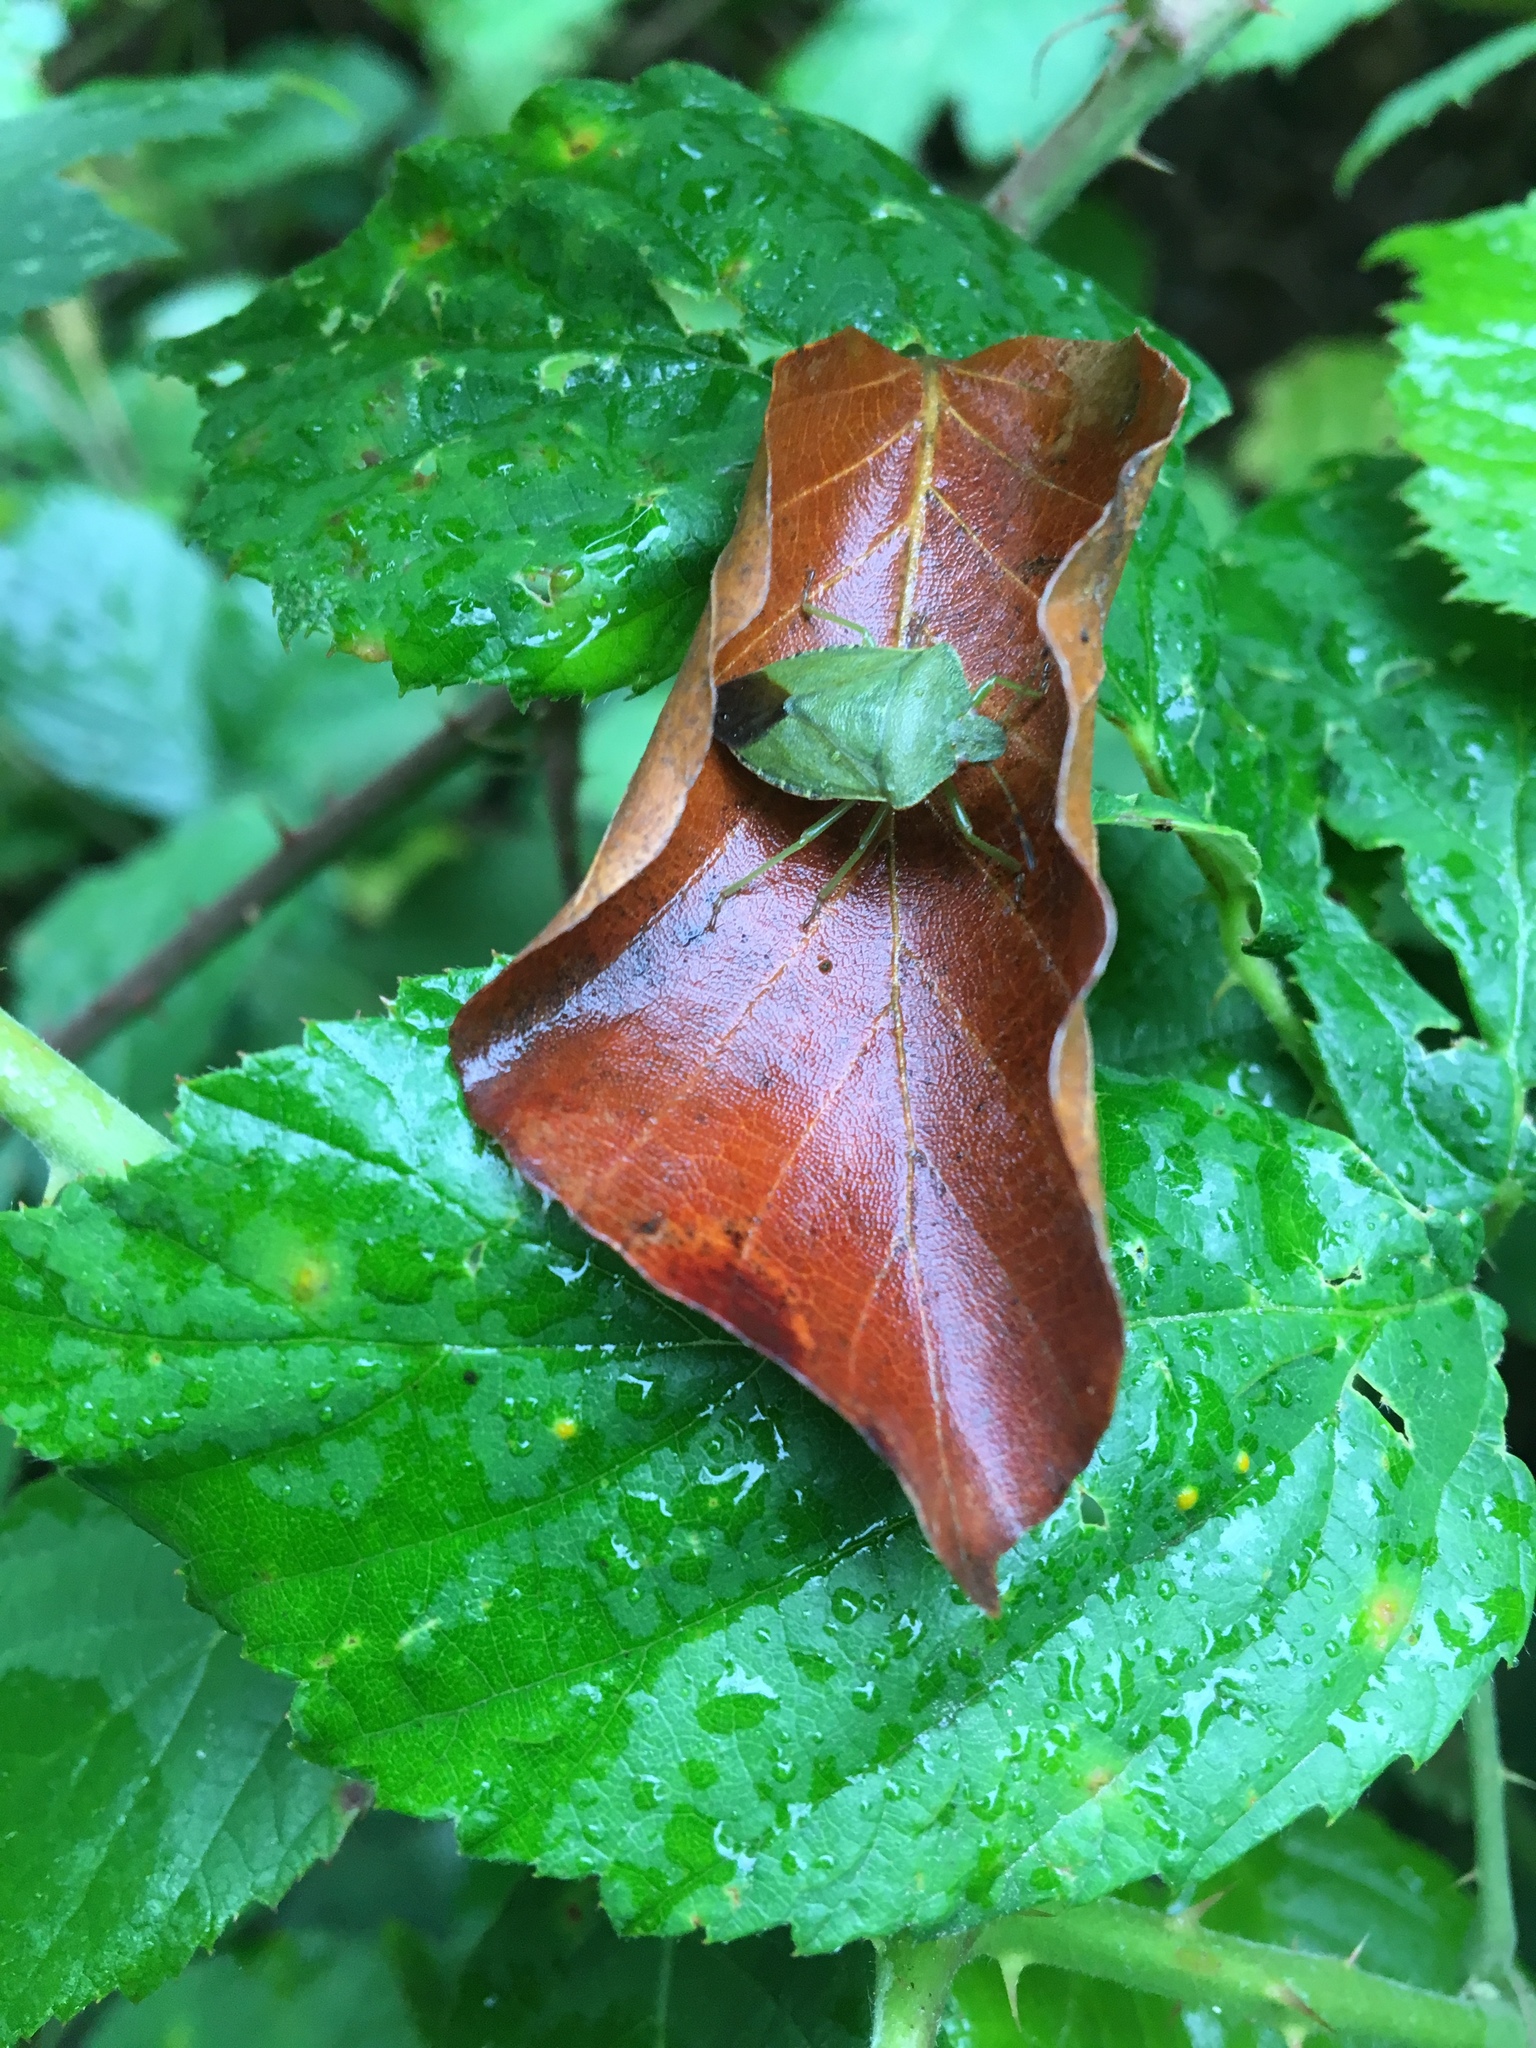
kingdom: Animalia
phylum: Arthropoda
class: Insecta
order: Hemiptera
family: Pentatomidae
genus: Palomena
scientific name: Palomena prasina
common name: Green shieldbug
